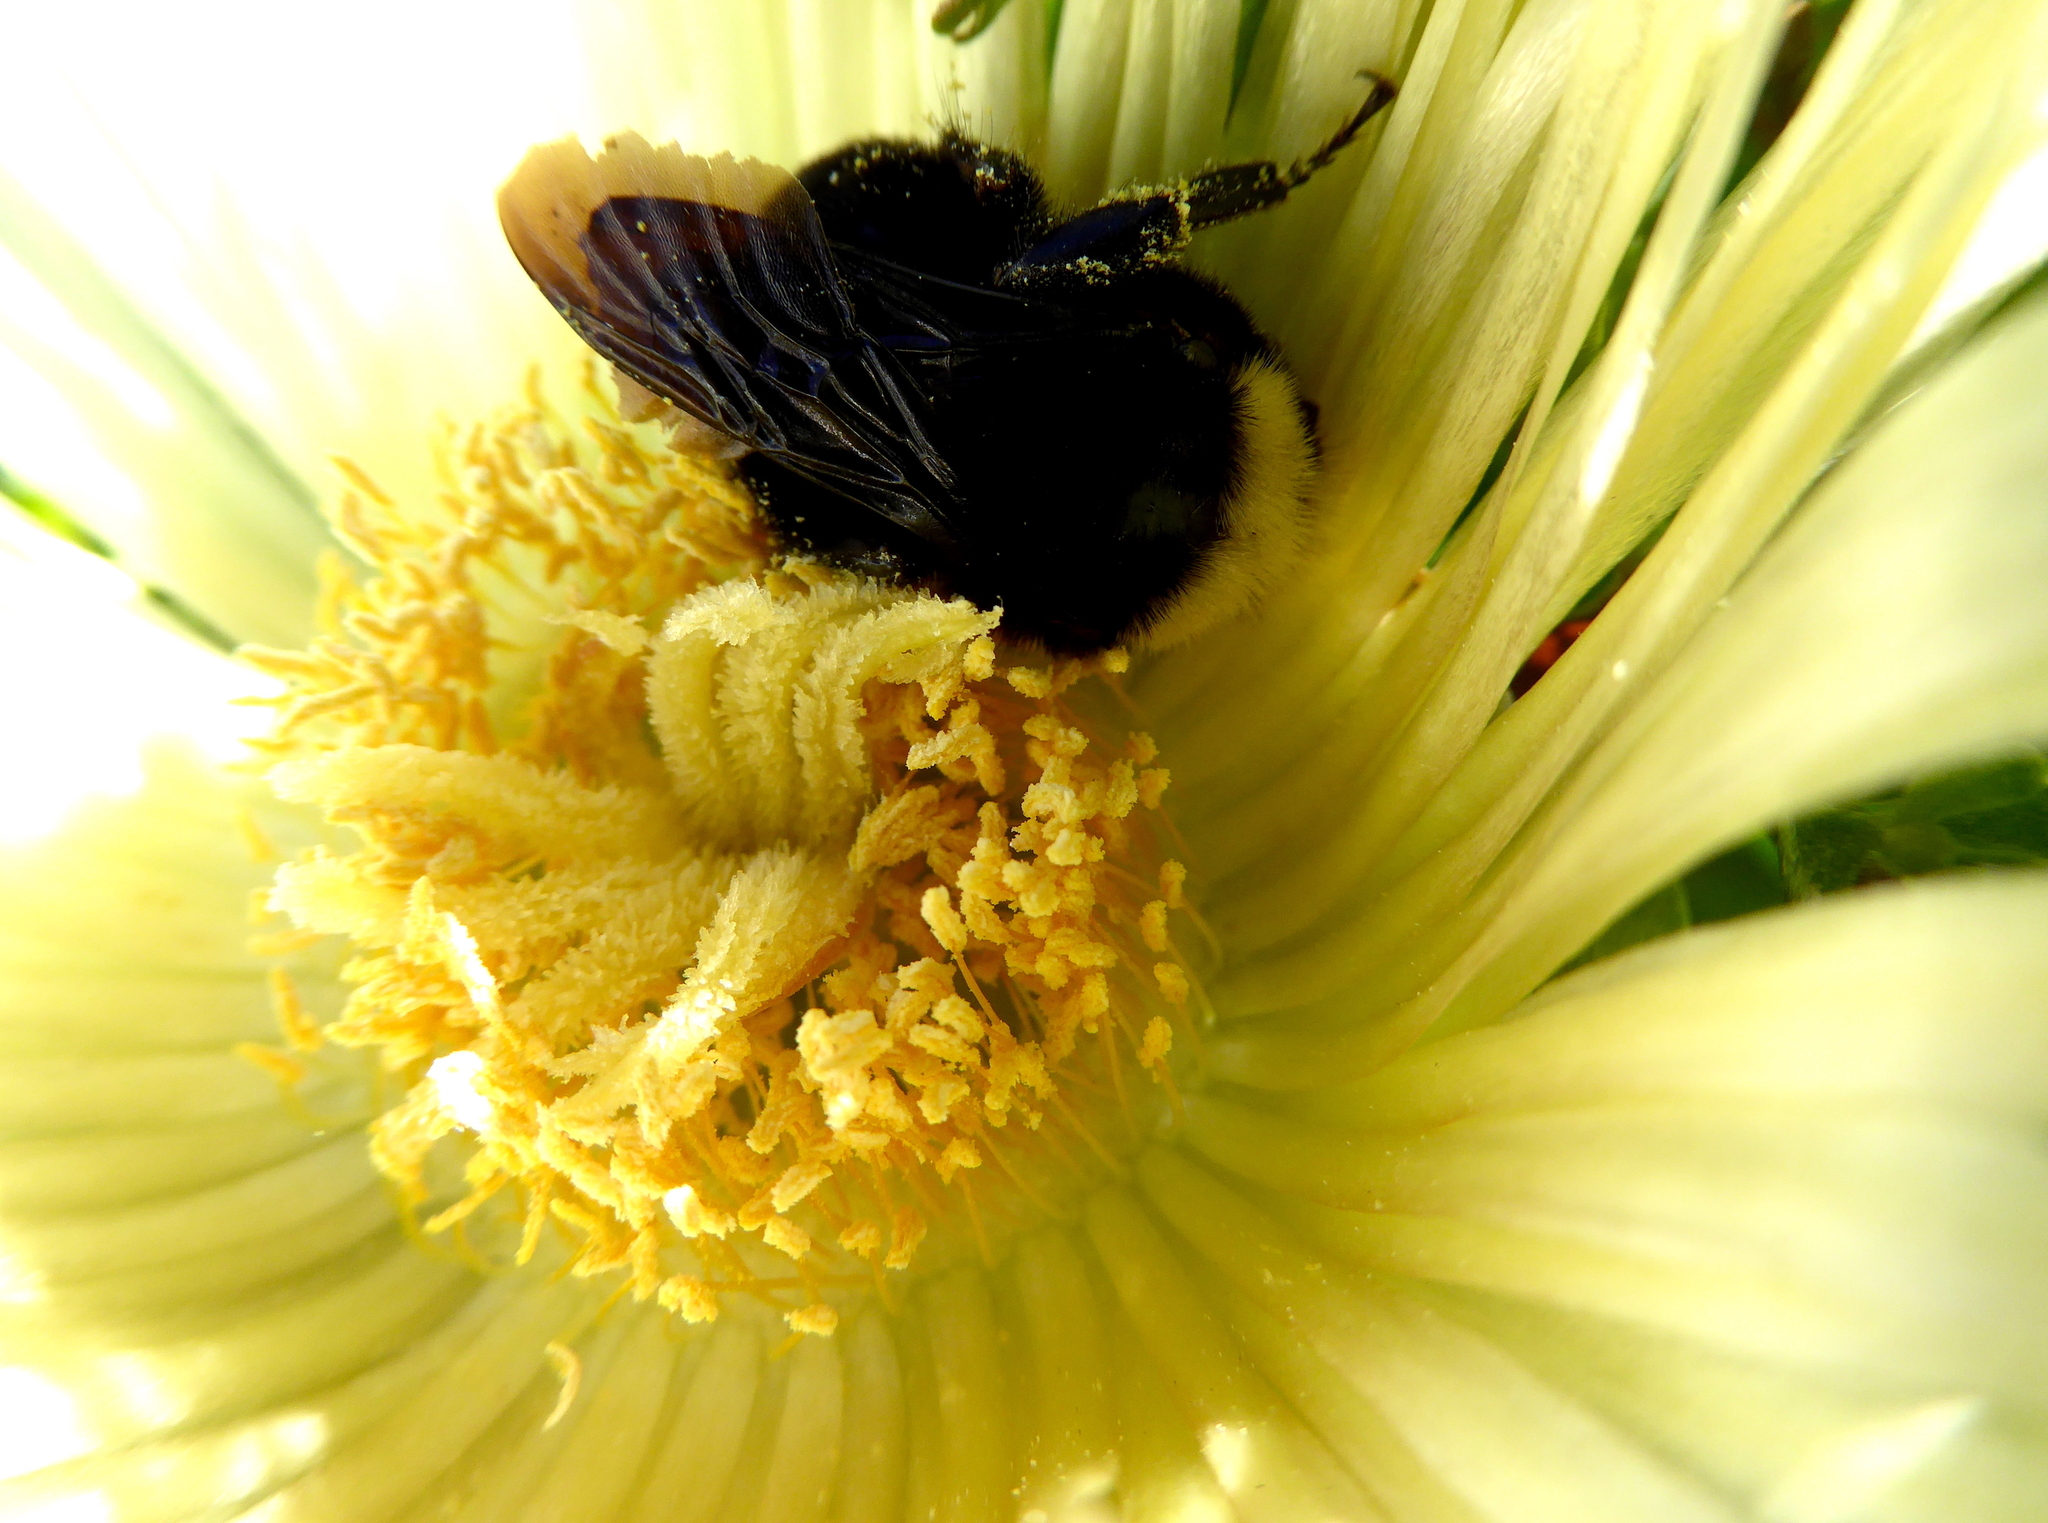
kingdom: Animalia
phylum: Arthropoda
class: Insecta
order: Hymenoptera
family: Apidae
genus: Pyrobombus
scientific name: Pyrobombus
